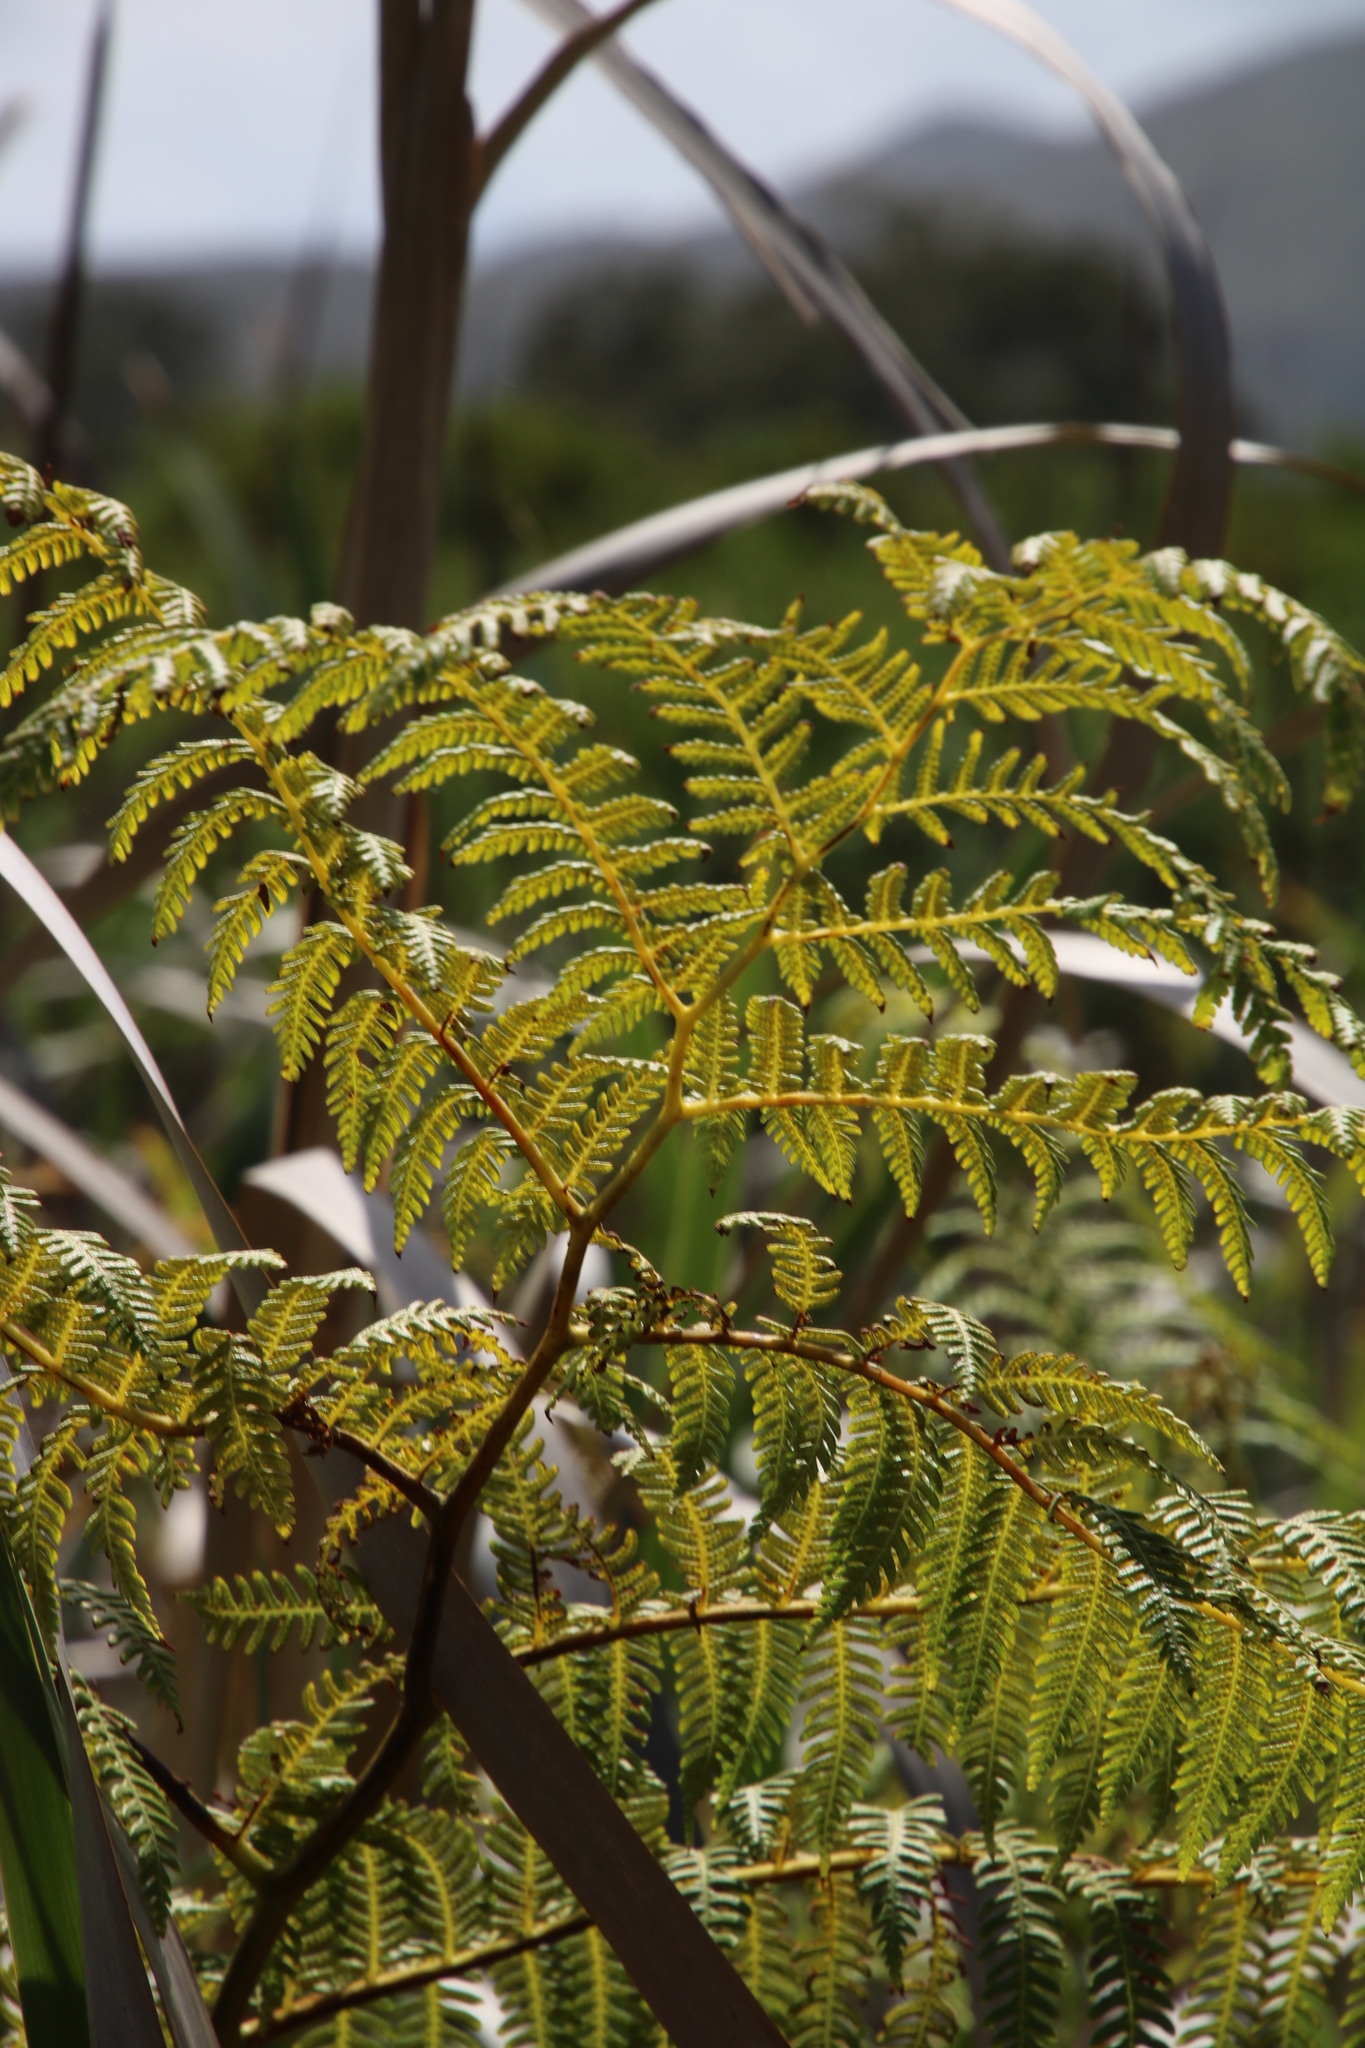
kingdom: Plantae
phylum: Tracheophyta
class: Polypodiopsida
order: Cyatheales
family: Cyatheaceae
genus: Sphaeropteris
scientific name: Sphaeropteris cooperi
